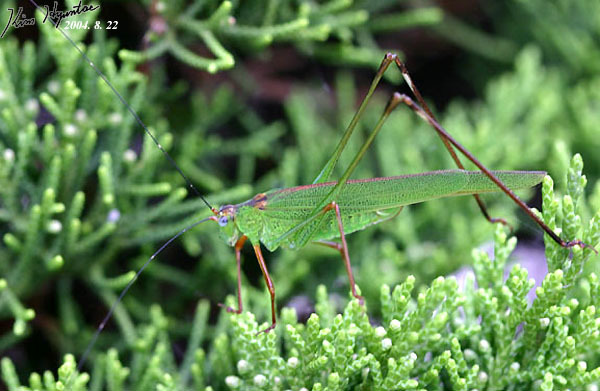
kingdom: Animalia
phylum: Arthropoda
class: Insecta
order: Orthoptera
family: Tettigoniidae
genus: Phaneroptera
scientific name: Phaneroptera nigroantennata
